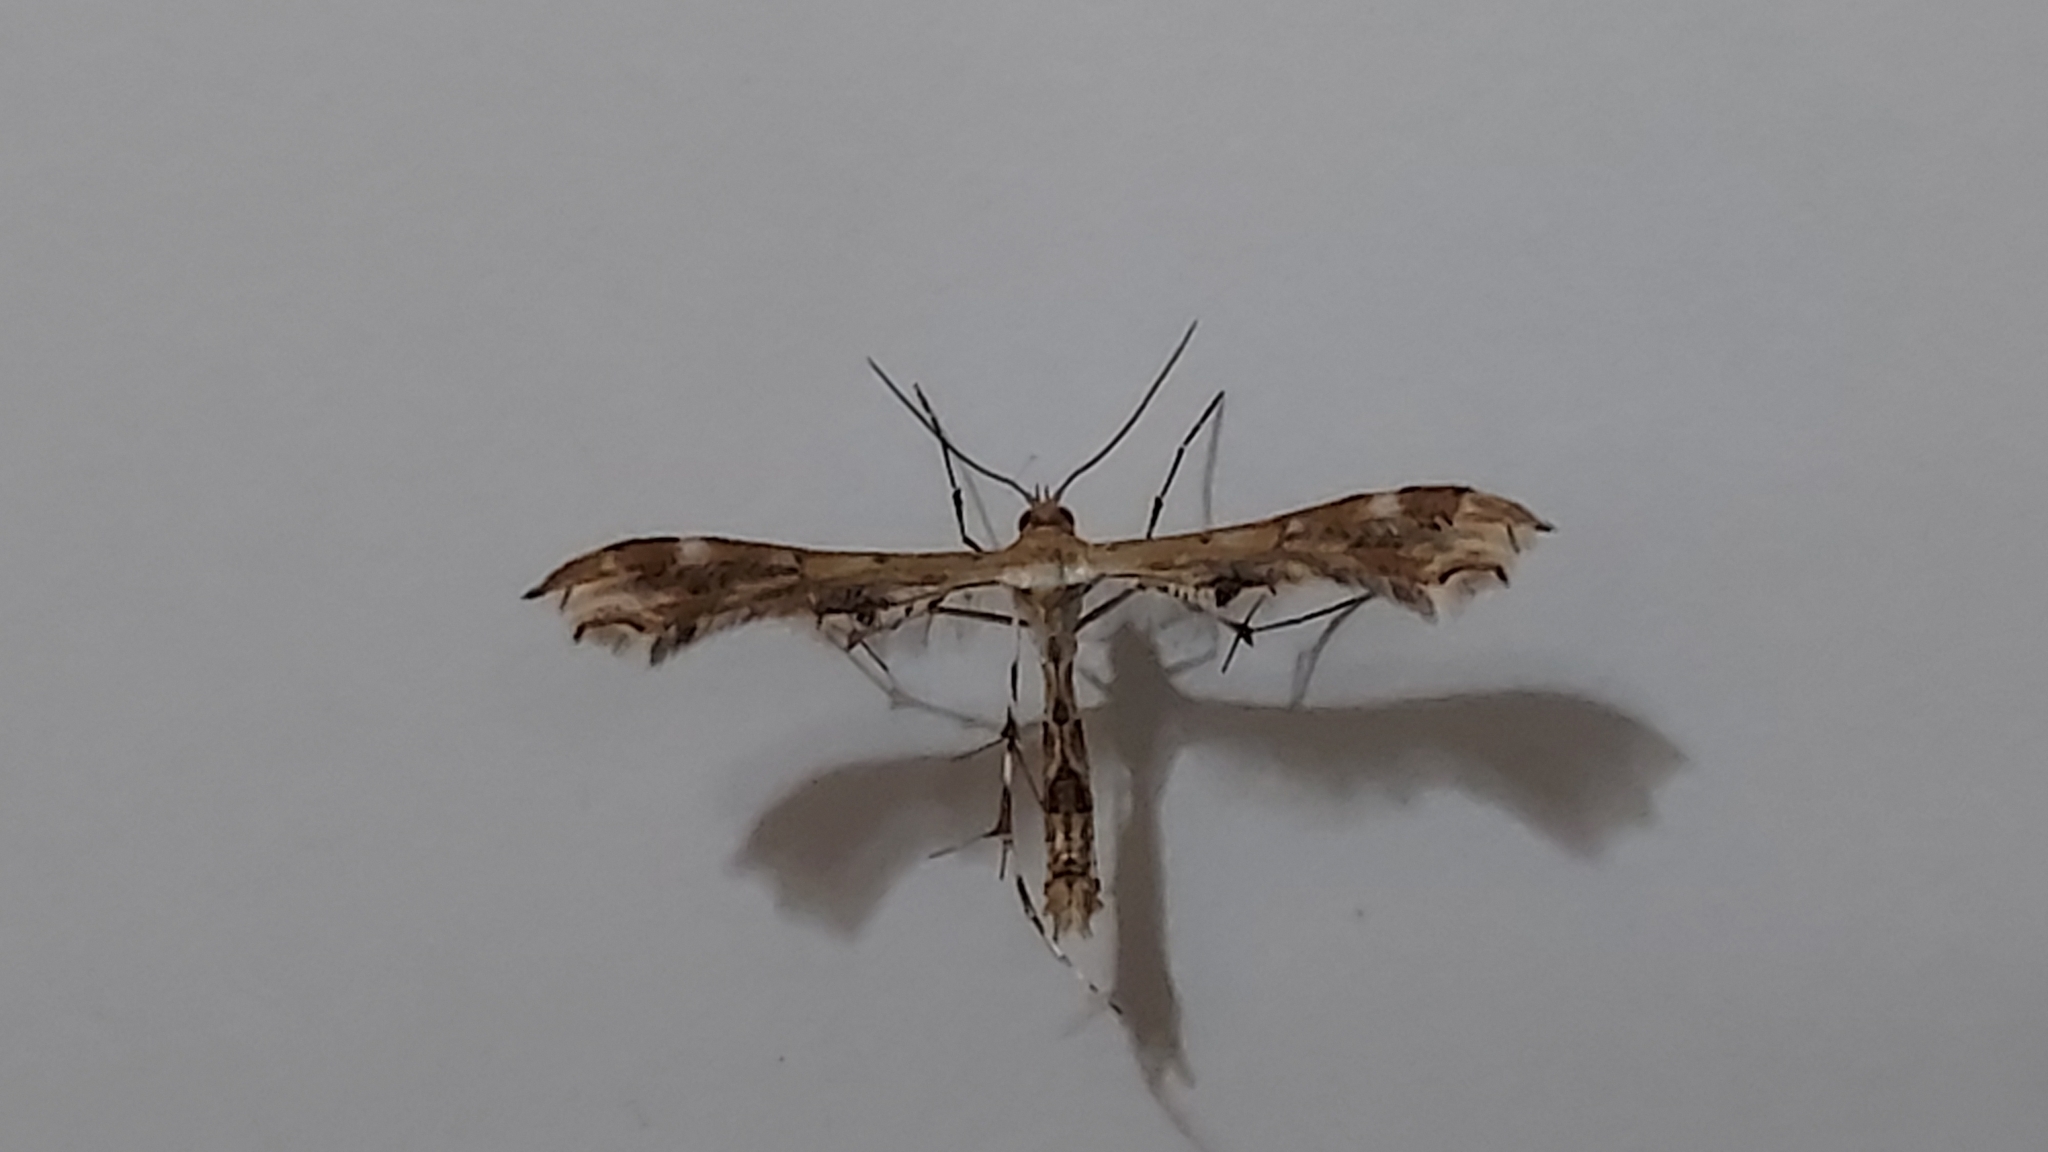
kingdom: Animalia
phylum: Arthropoda
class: Insecta
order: Lepidoptera
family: Pterophoridae
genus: Sphenarches
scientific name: Sphenarches anisodactylus
